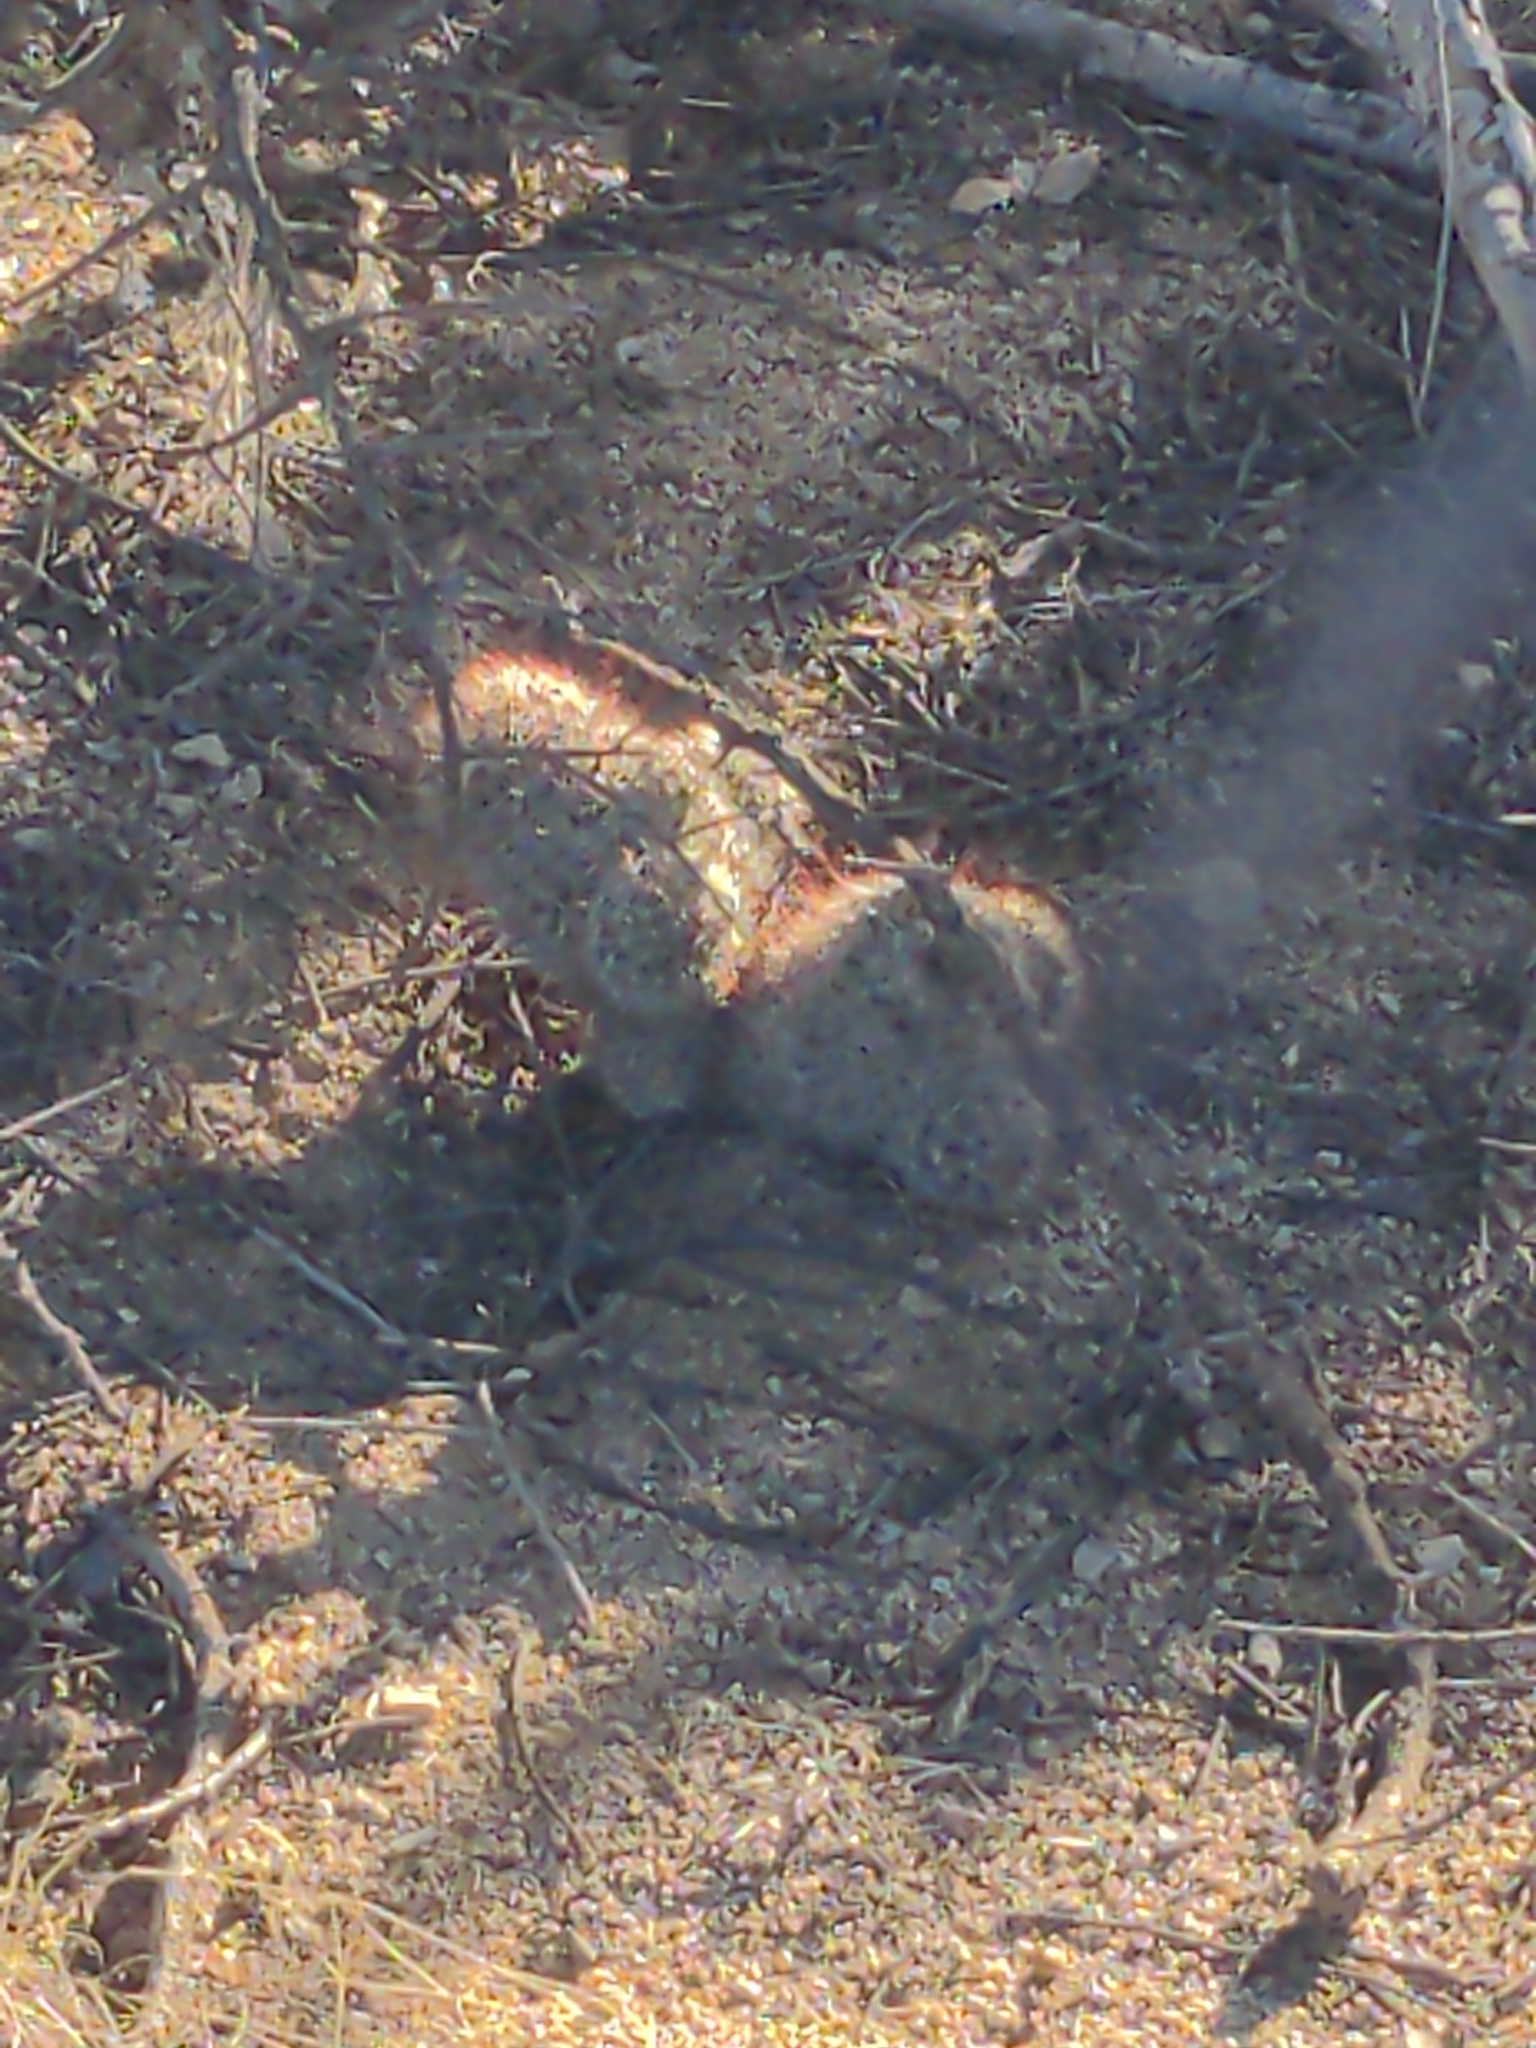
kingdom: Plantae
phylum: Tracheophyta
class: Magnoliopsida
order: Caryophyllales
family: Cactaceae
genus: Cochemiea
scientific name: Cochemiea grahamii
